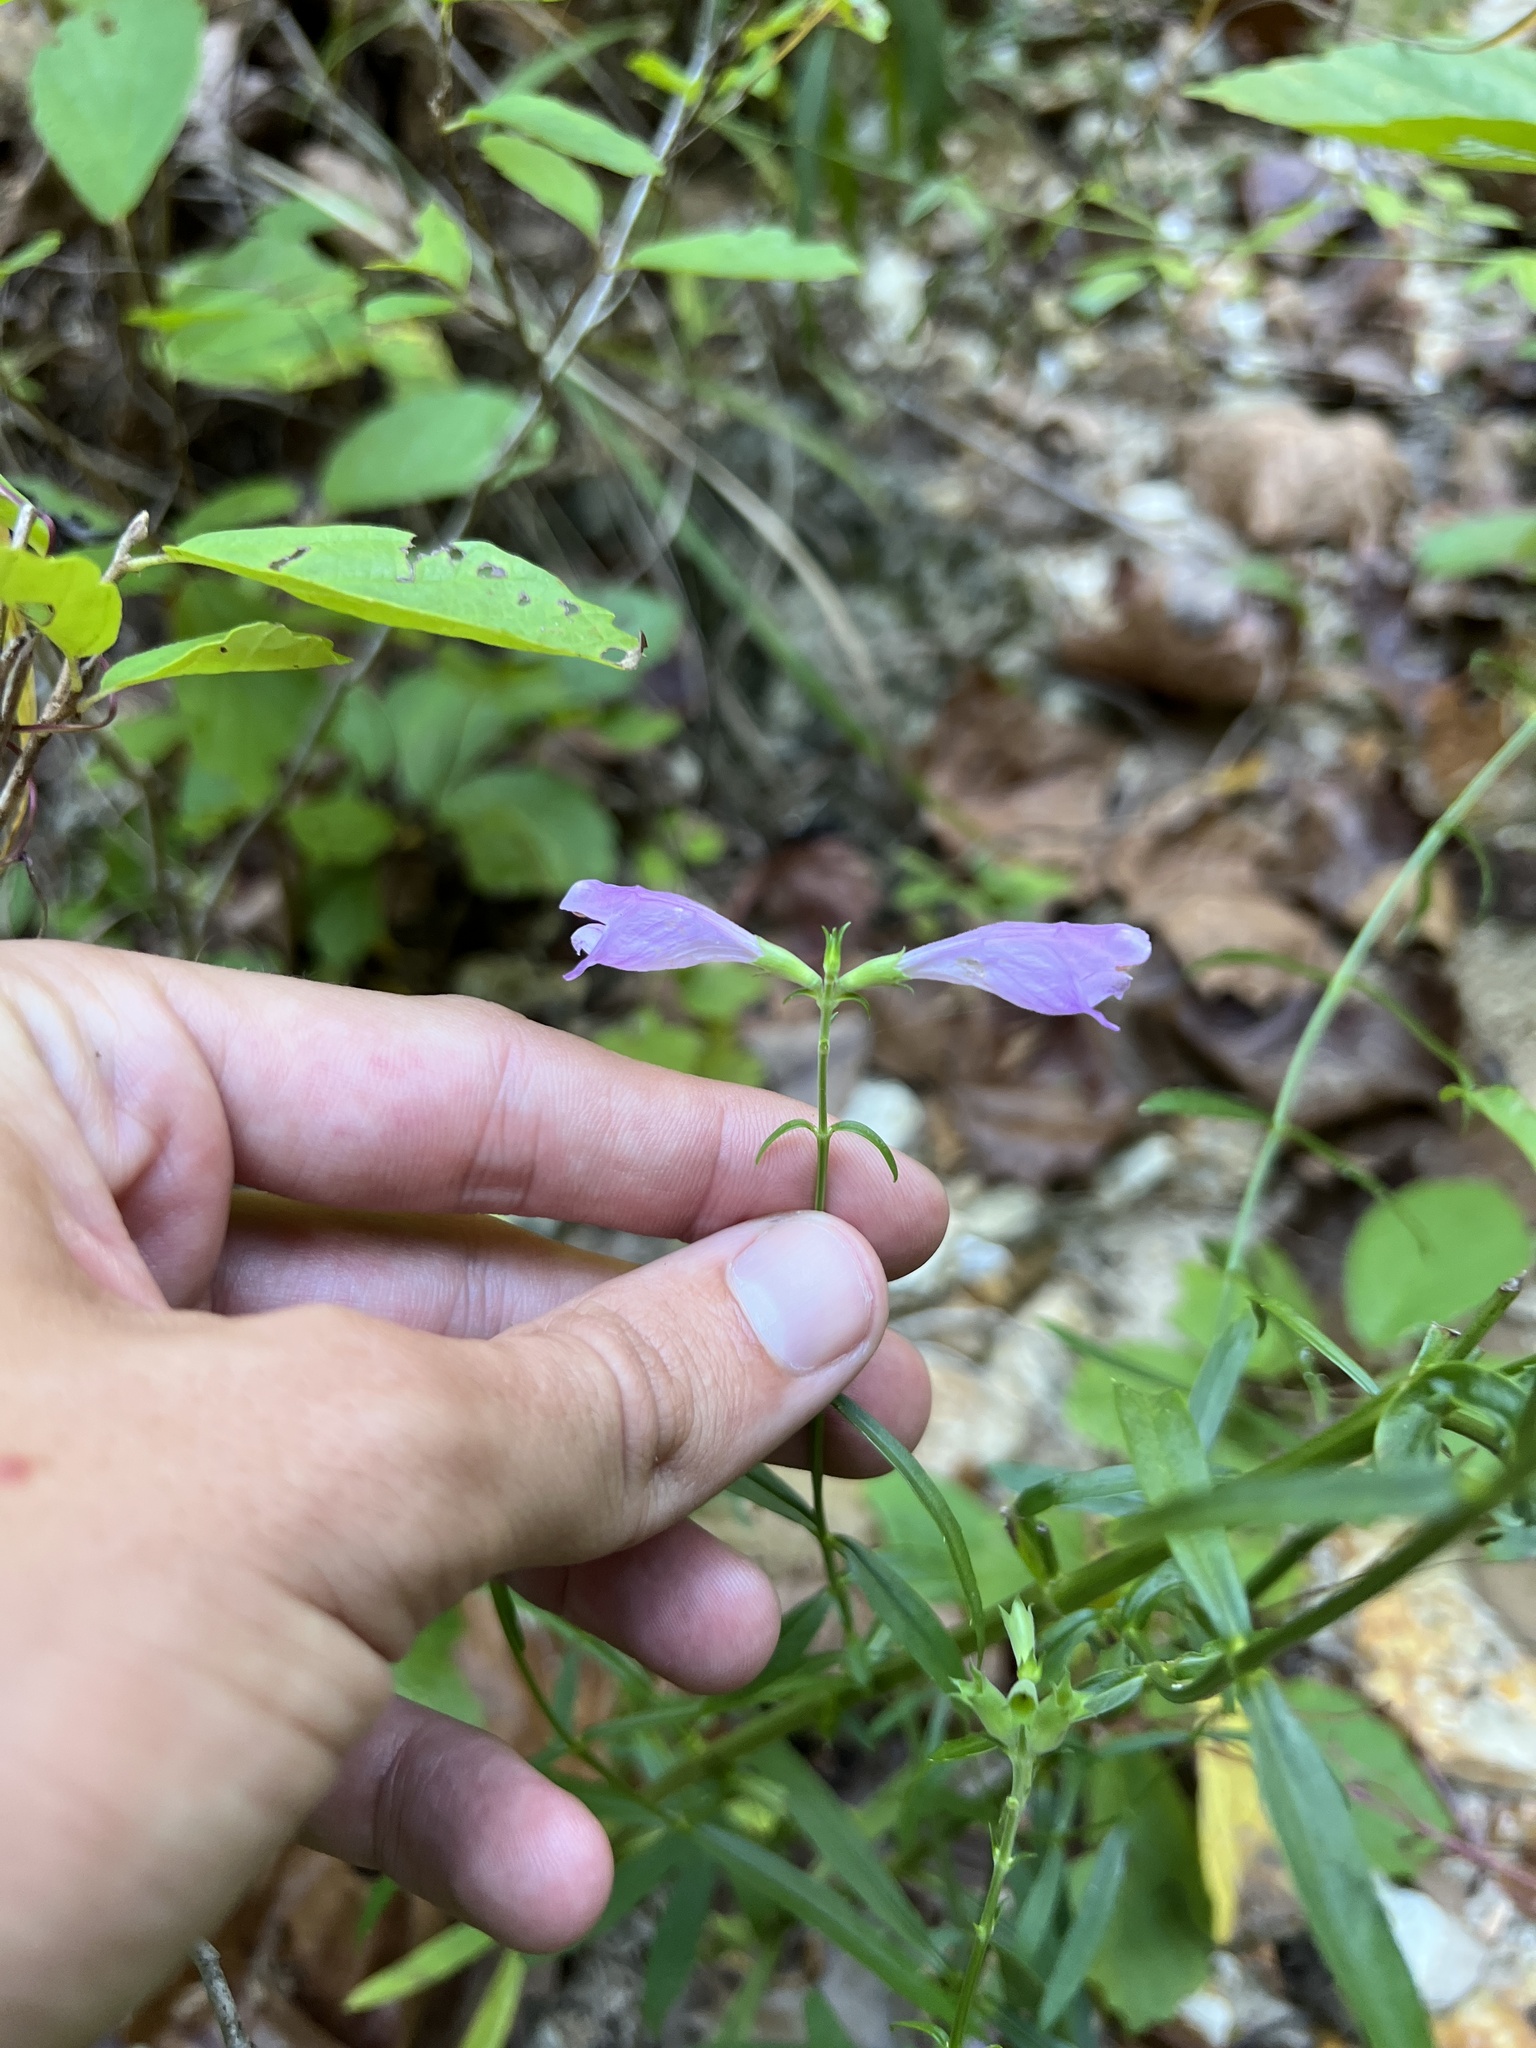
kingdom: Plantae
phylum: Tracheophyta
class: Magnoliopsida
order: Lamiales
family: Lamiaceae
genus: Physostegia
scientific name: Physostegia virginiana
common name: Obedient-plant
